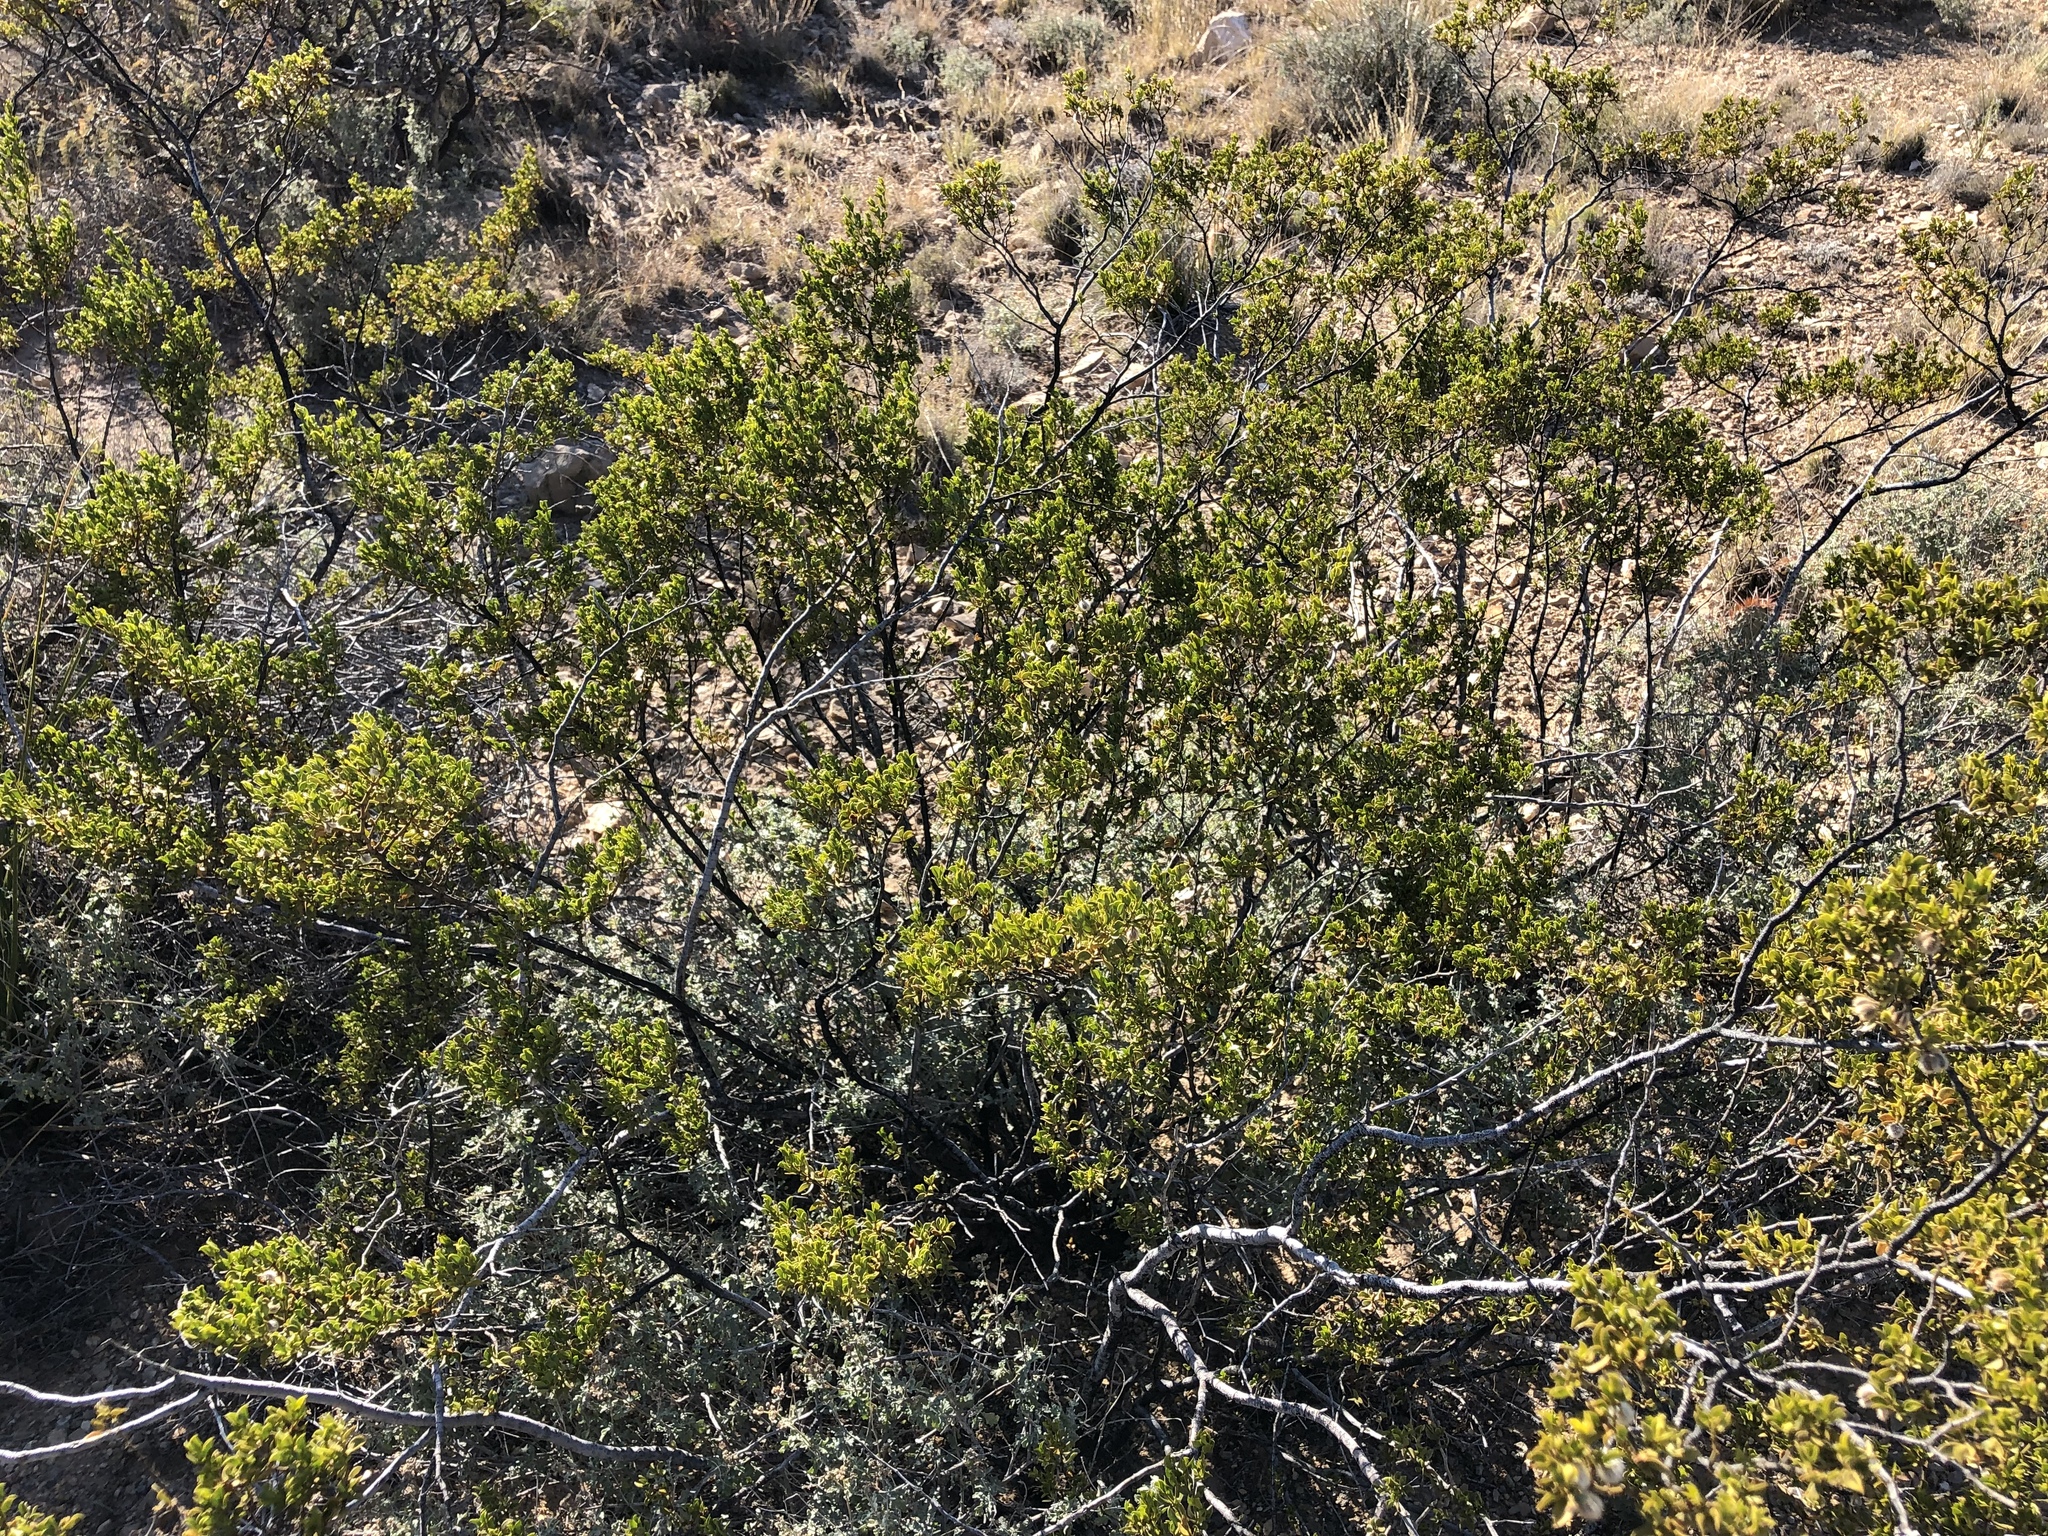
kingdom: Plantae
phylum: Tracheophyta
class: Magnoliopsida
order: Zygophyllales
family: Zygophyllaceae
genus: Larrea
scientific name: Larrea tridentata
